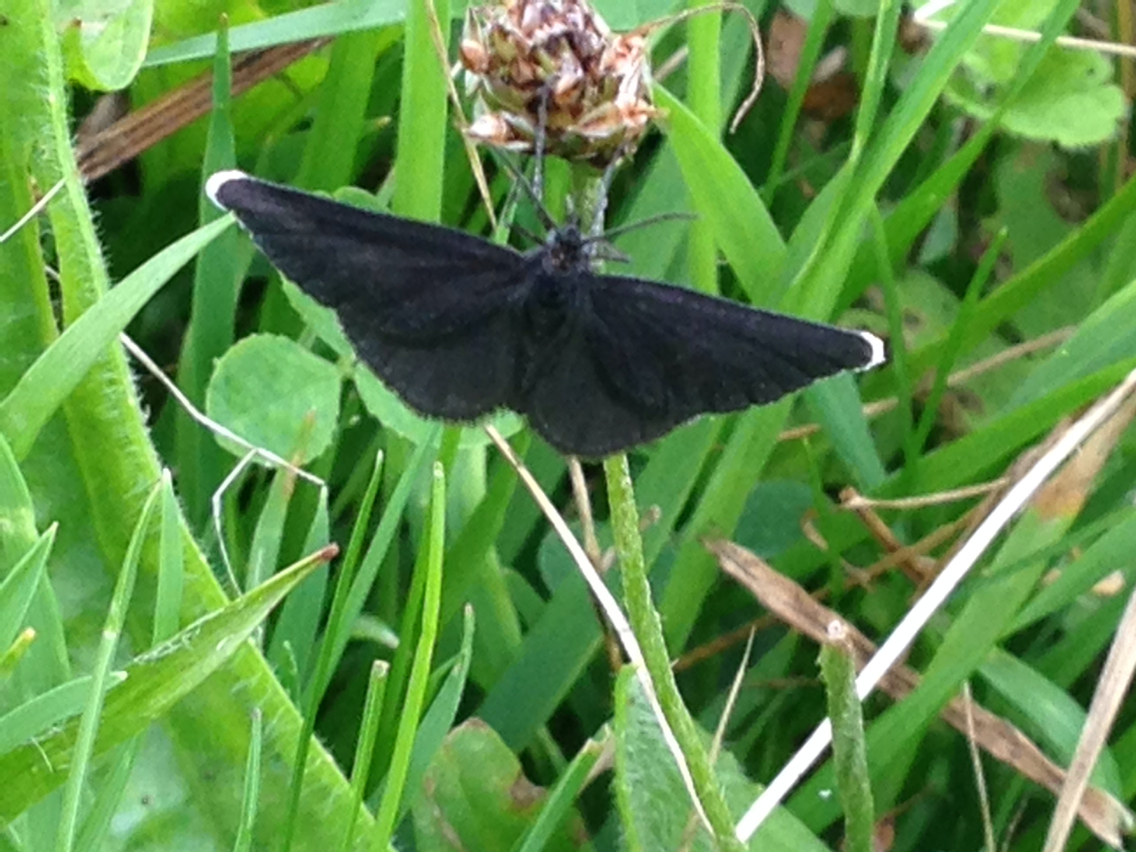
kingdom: Animalia
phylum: Arthropoda
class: Insecta
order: Lepidoptera
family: Geometridae
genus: Odezia
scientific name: Odezia atrata
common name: Chimney sweeper
